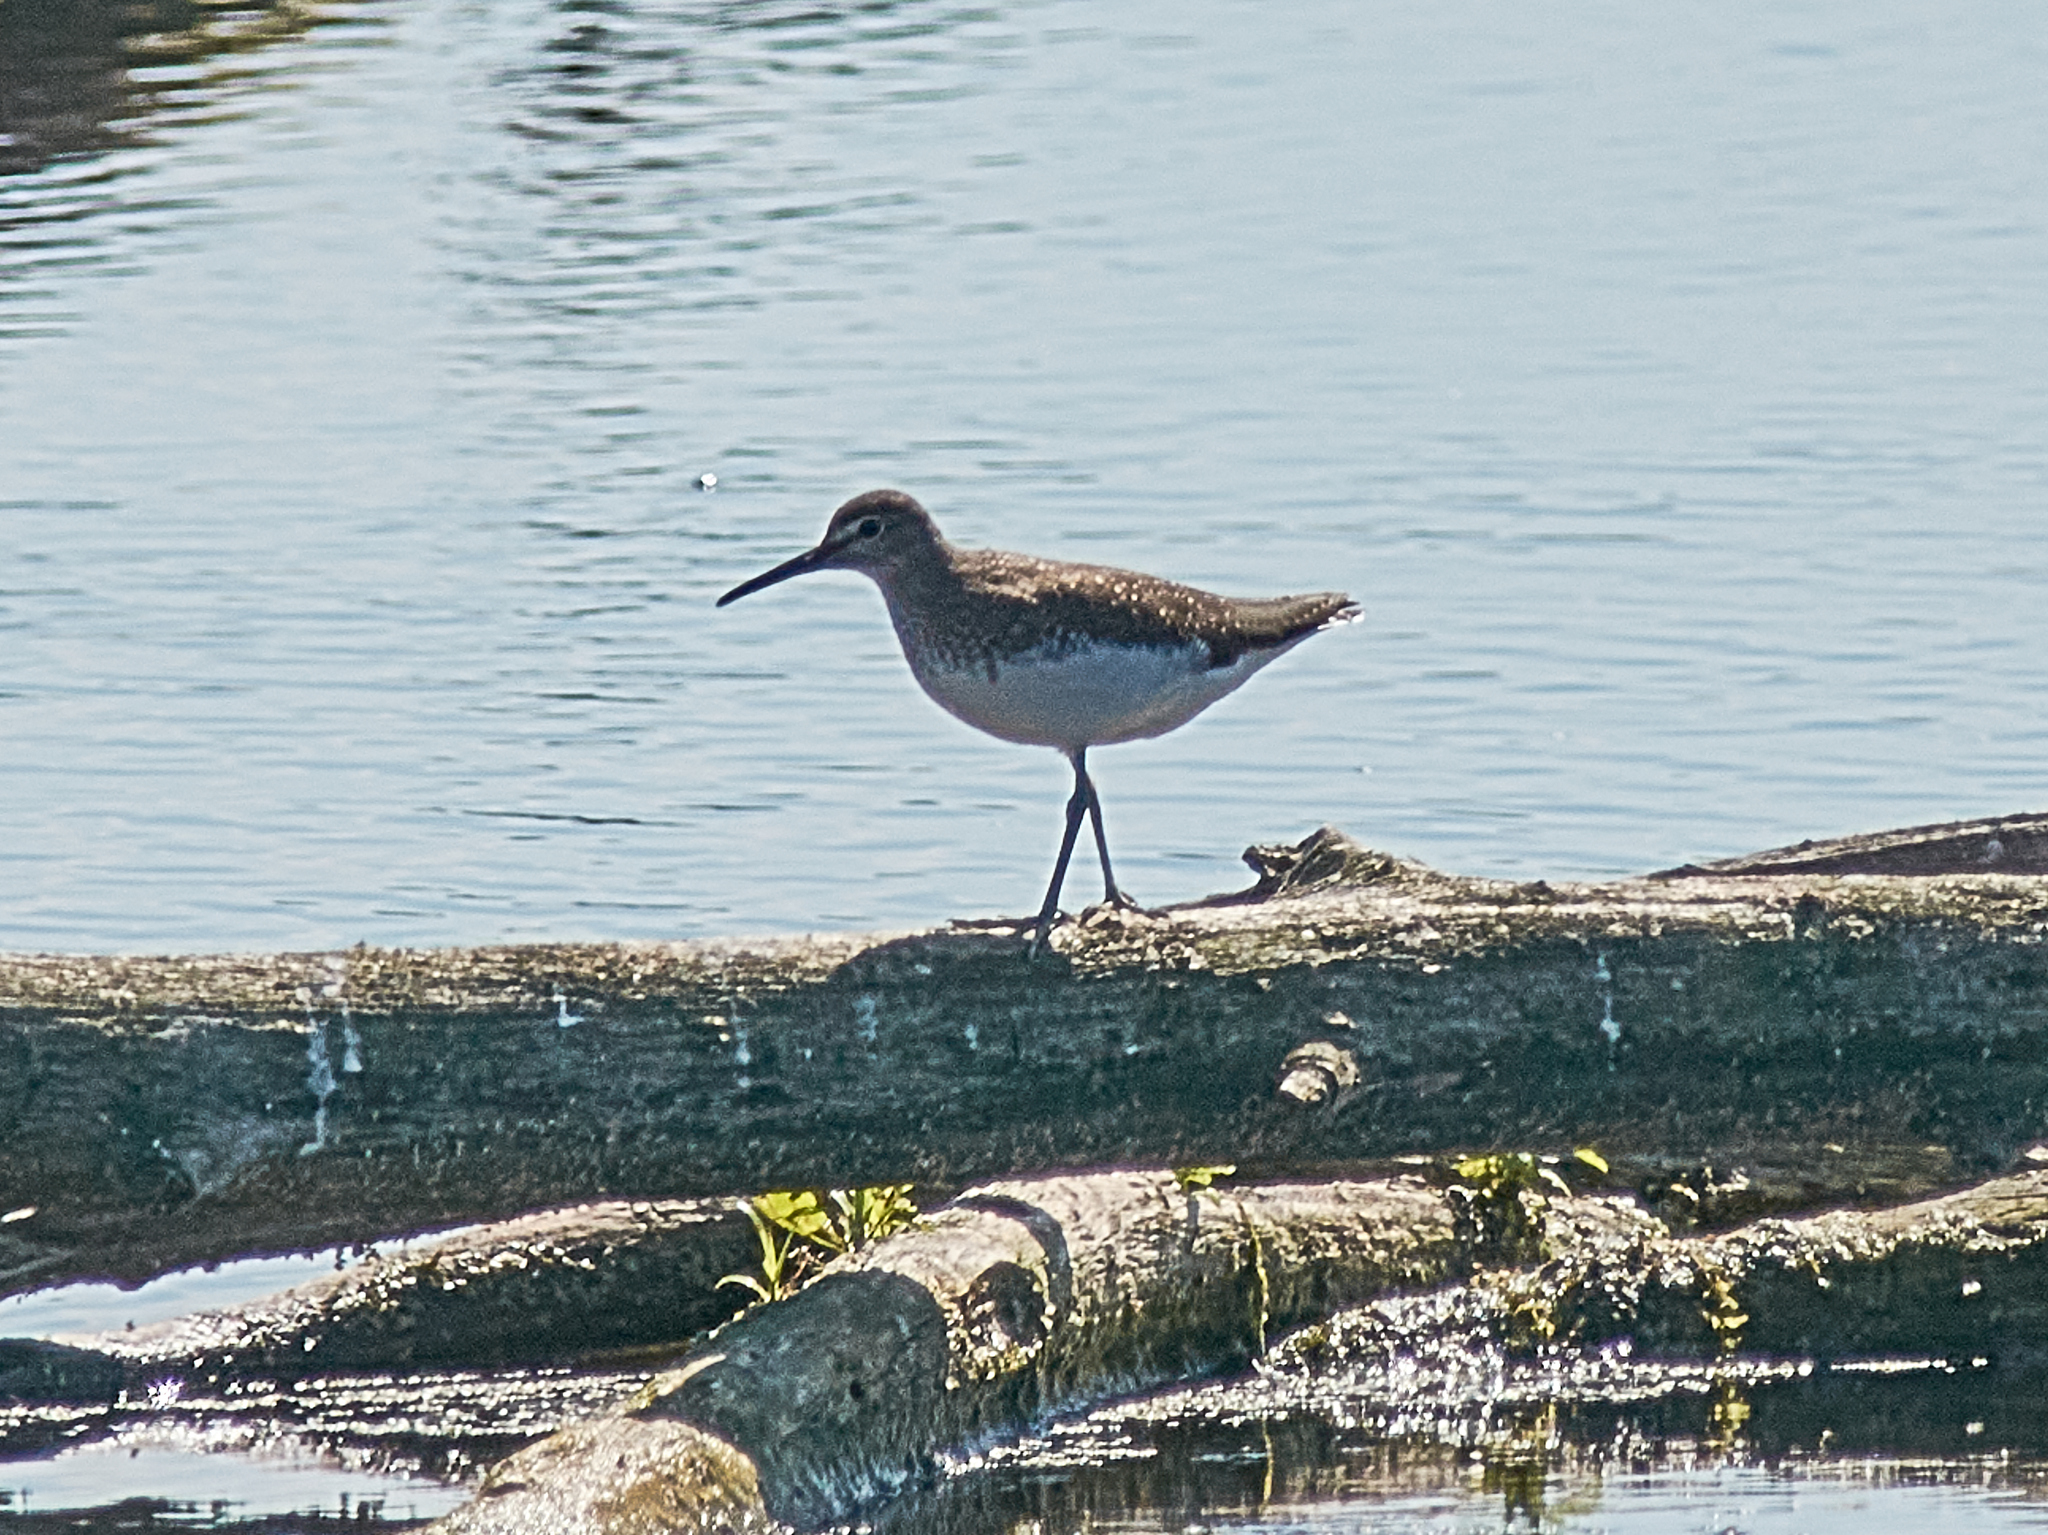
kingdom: Animalia
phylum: Chordata
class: Aves
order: Charadriiformes
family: Scolopacidae
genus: Tringa
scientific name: Tringa ochropus
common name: Green sandpiper
